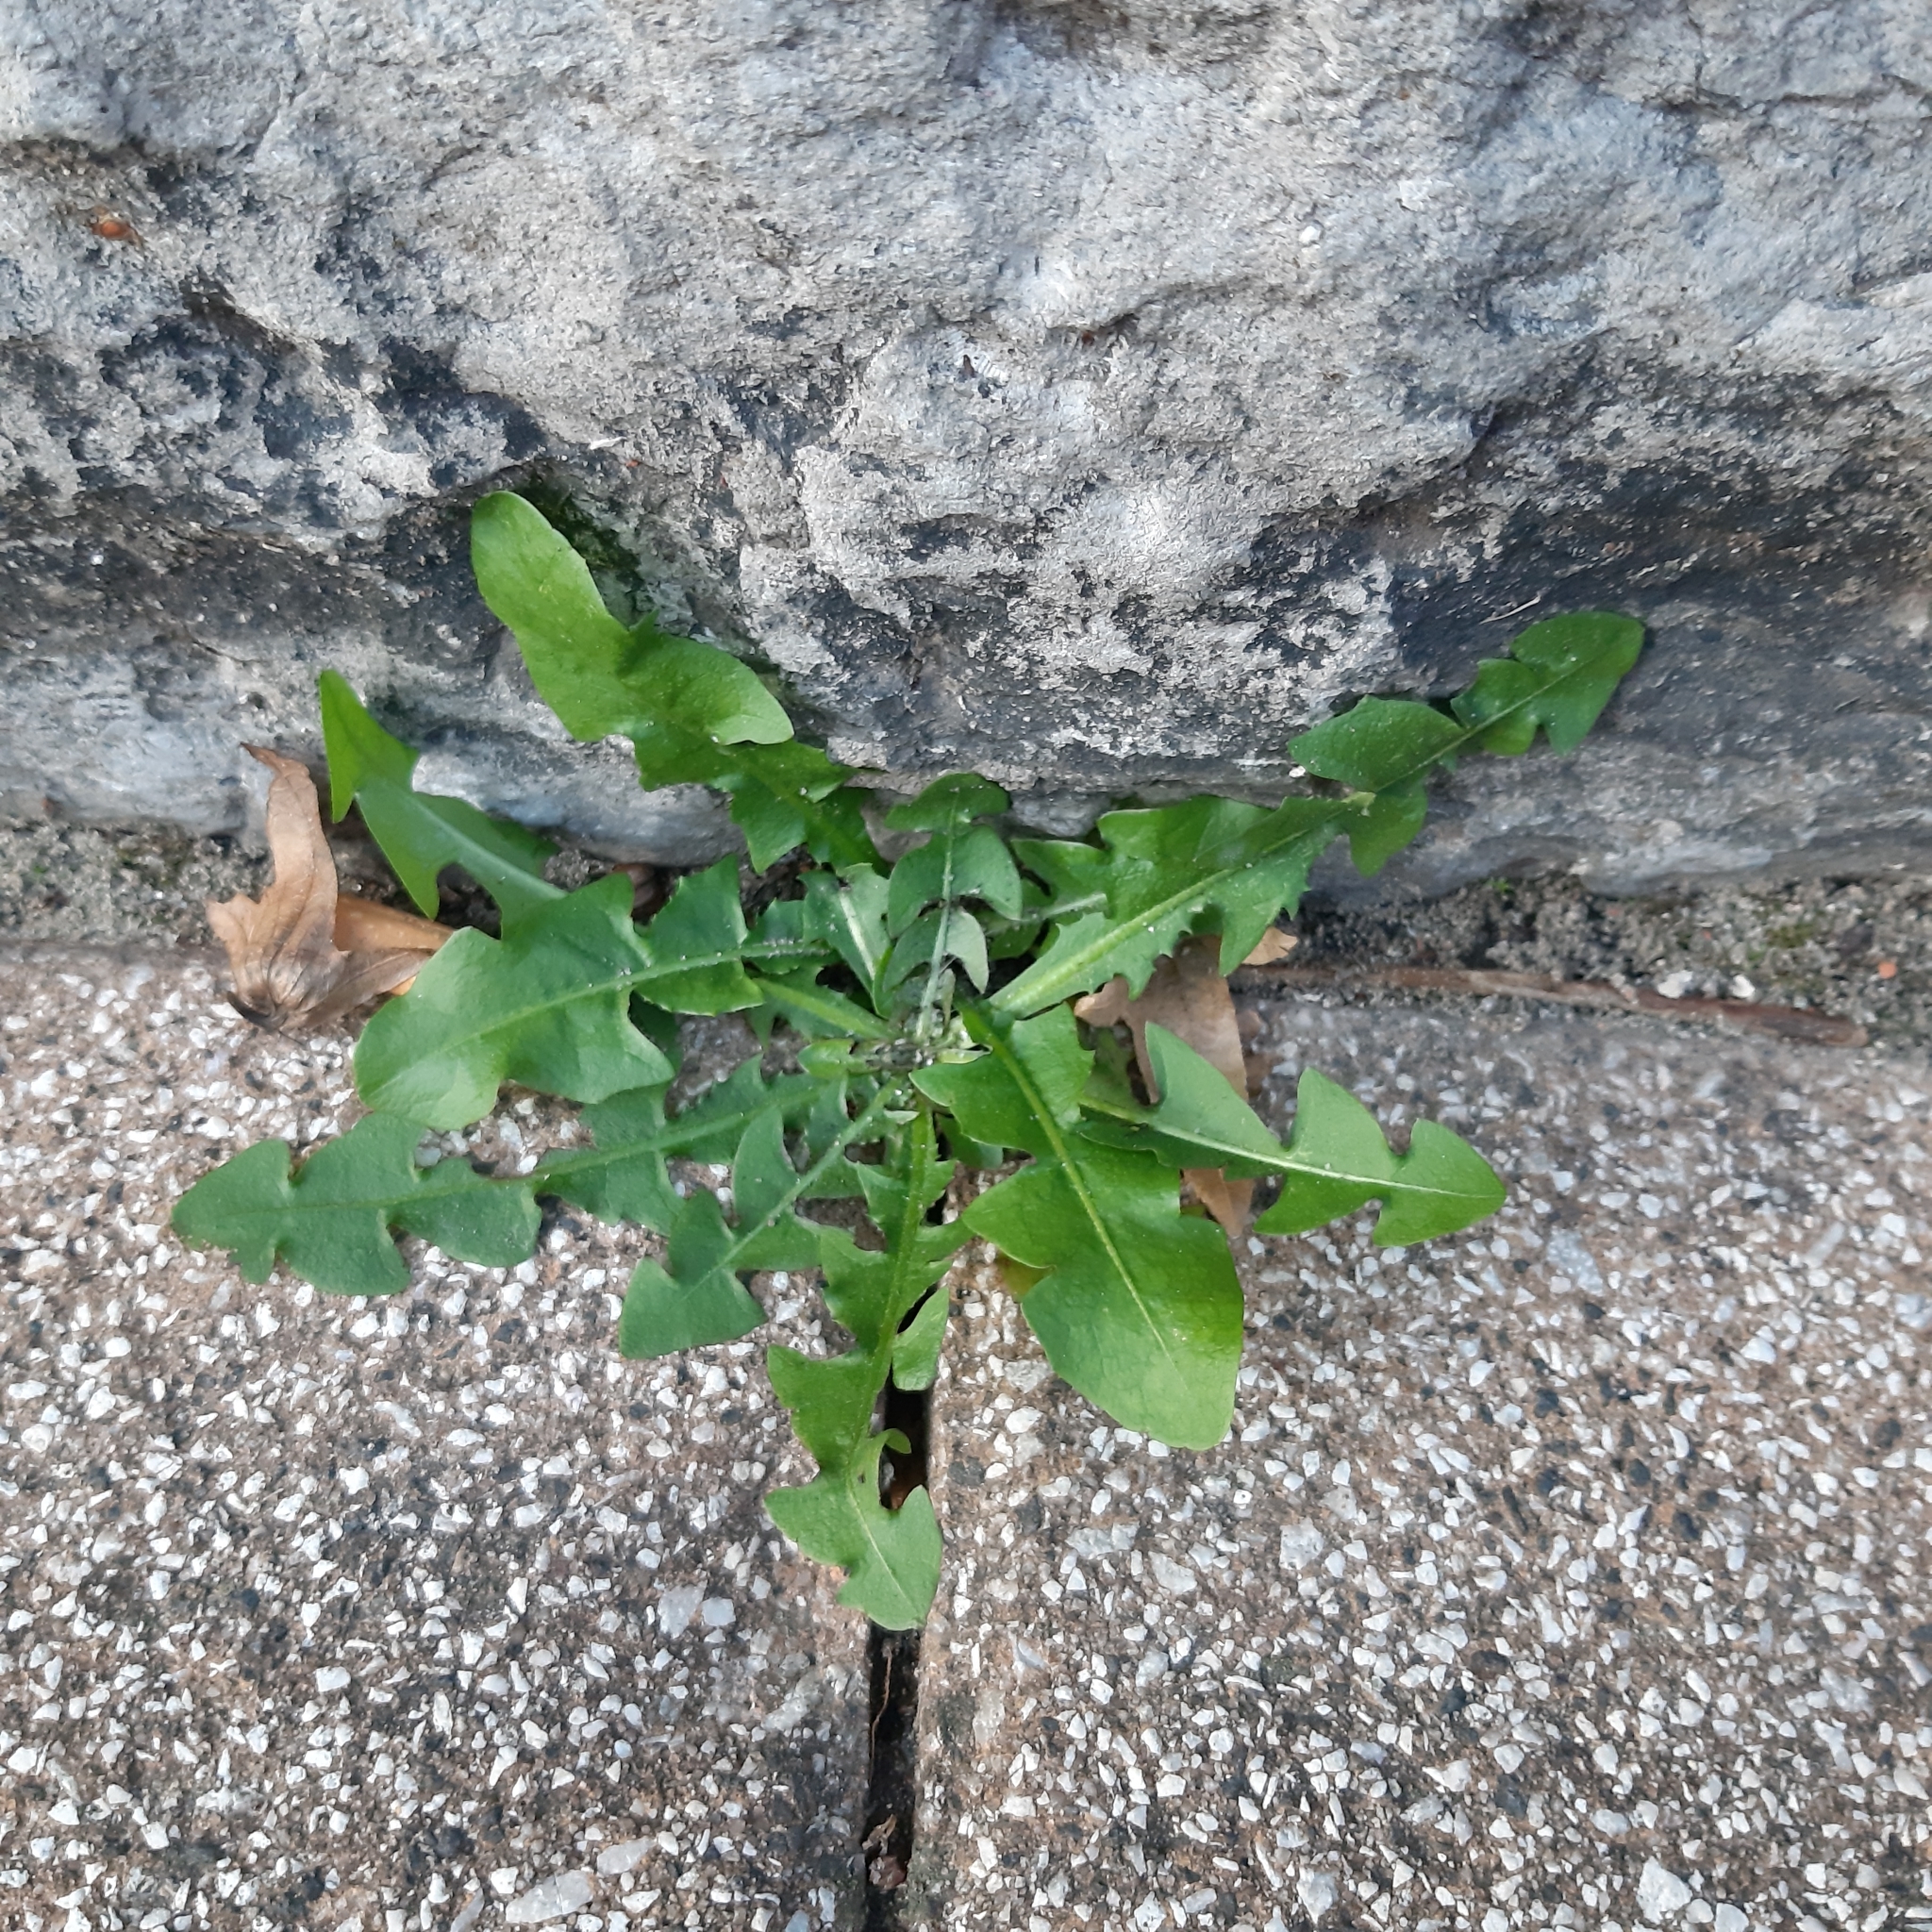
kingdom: Plantae
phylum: Tracheophyta
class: Magnoliopsida
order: Asterales
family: Asteraceae
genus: Taraxacum
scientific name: Taraxacum officinale
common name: Common dandelion
